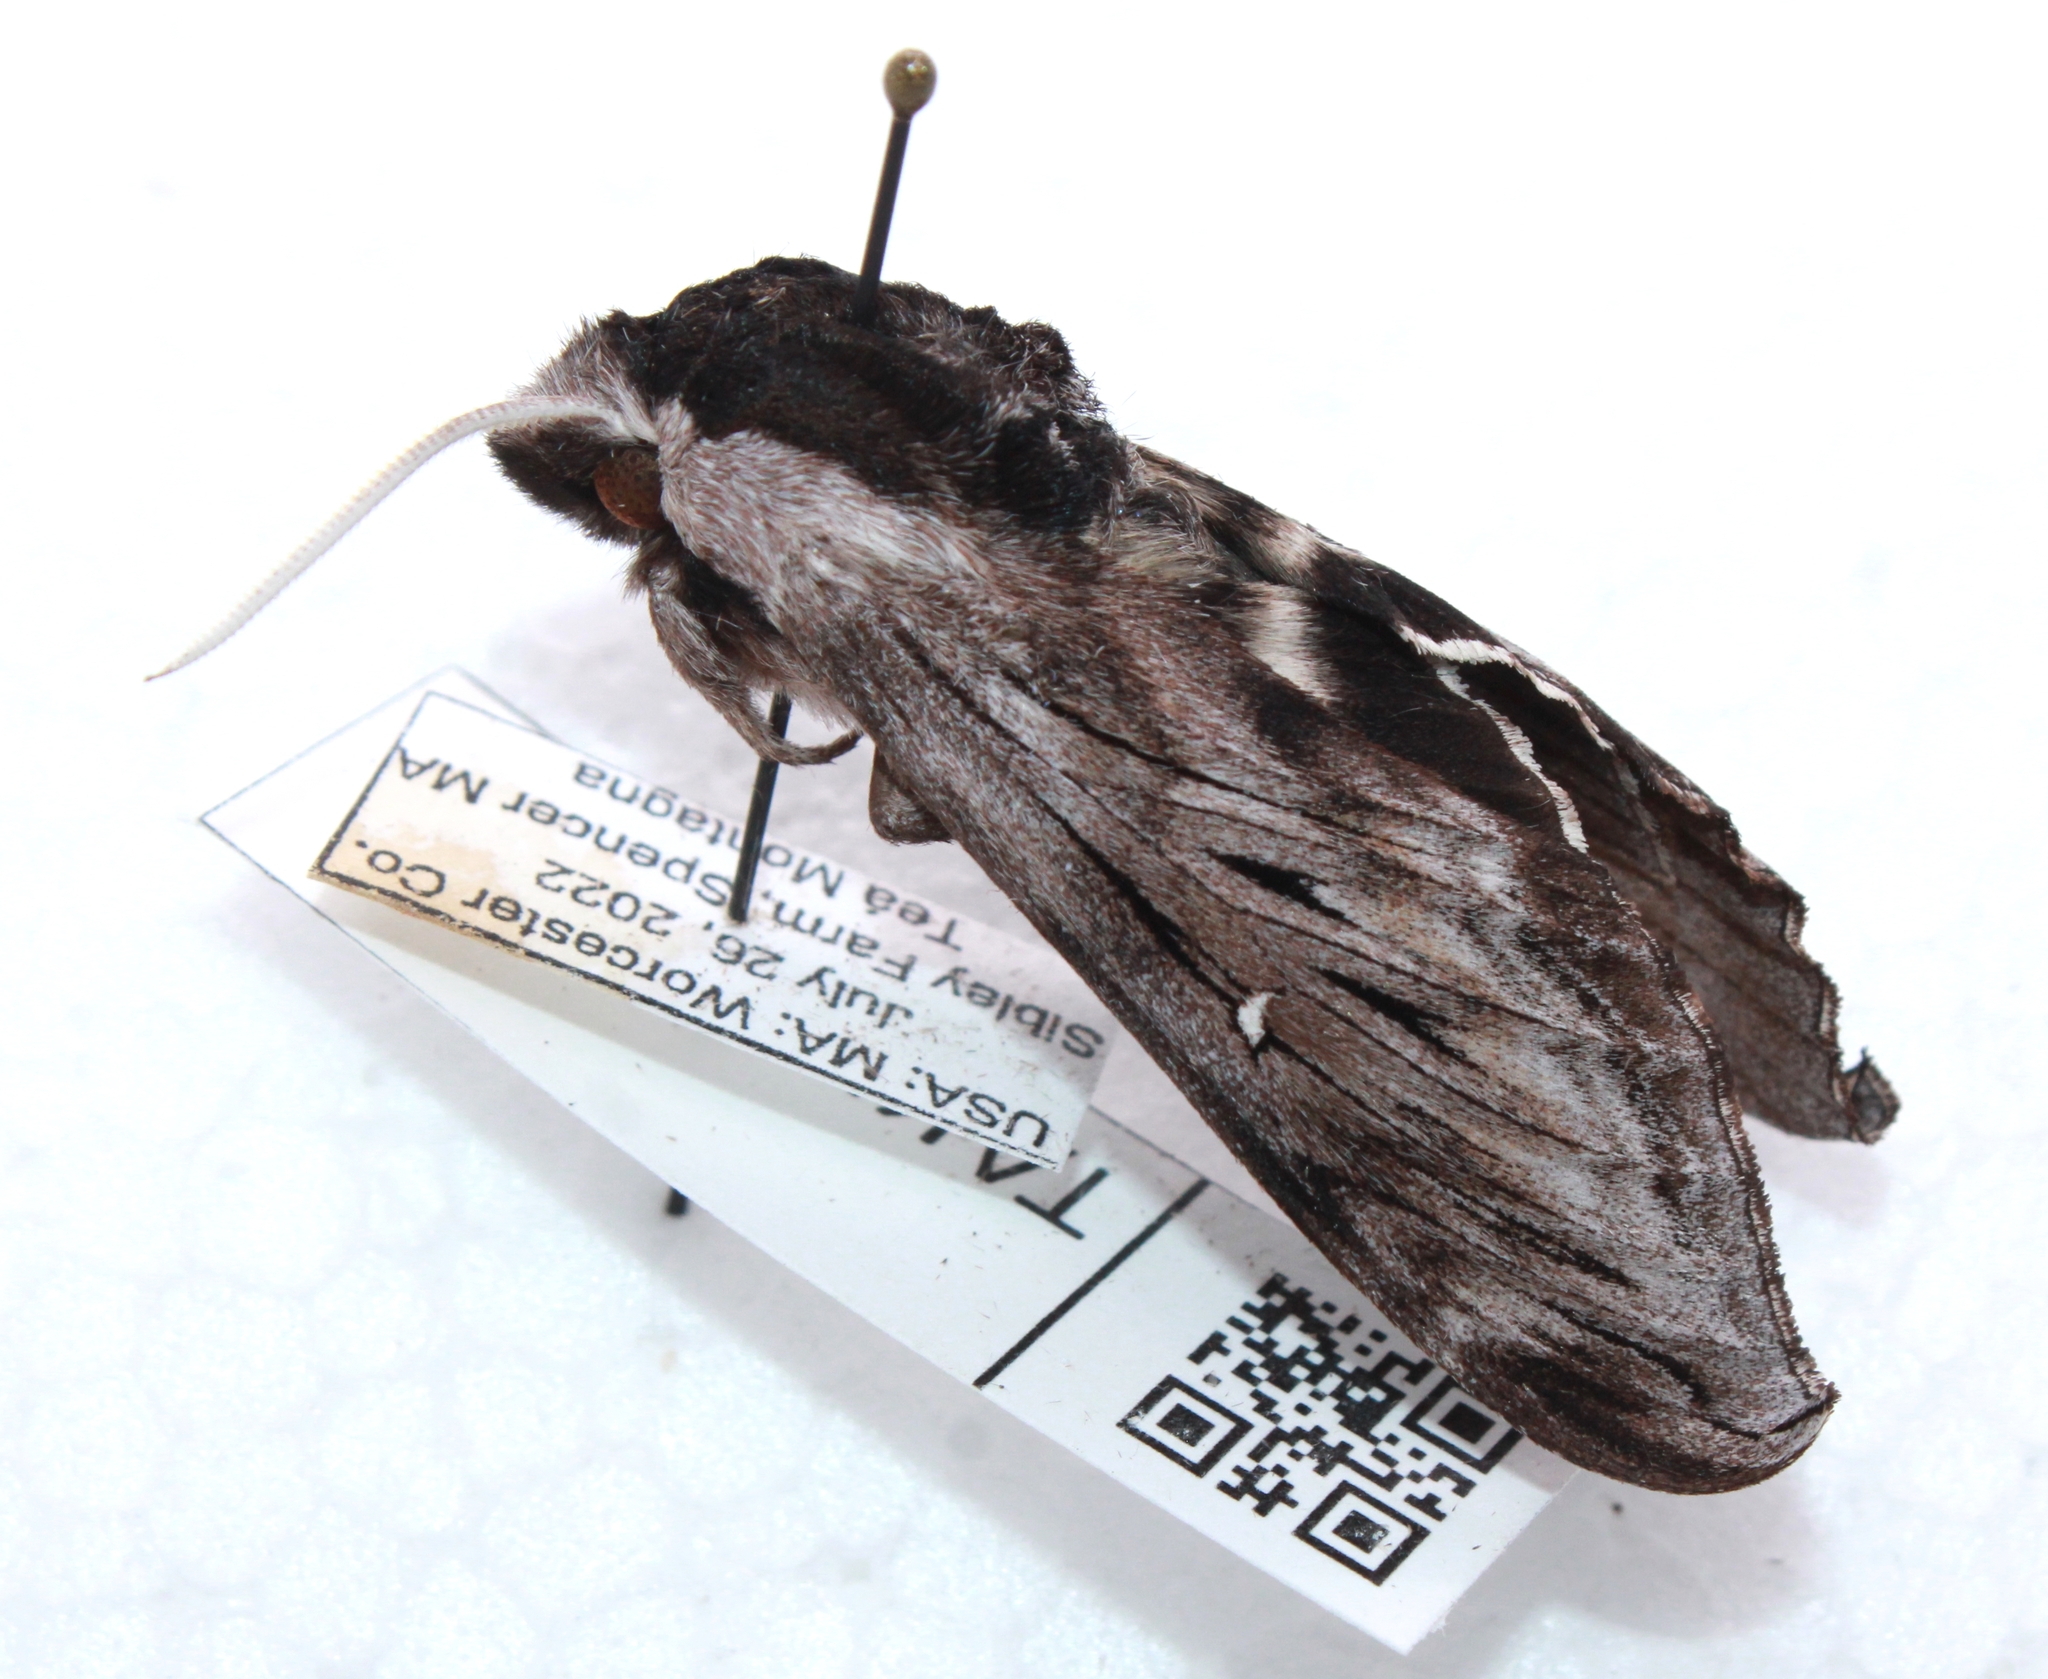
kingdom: Animalia
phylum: Arthropoda
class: Insecta
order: Lepidoptera
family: Sphingidae
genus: Sphinx
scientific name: Sphinx poecila
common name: Northern apple sphinx
